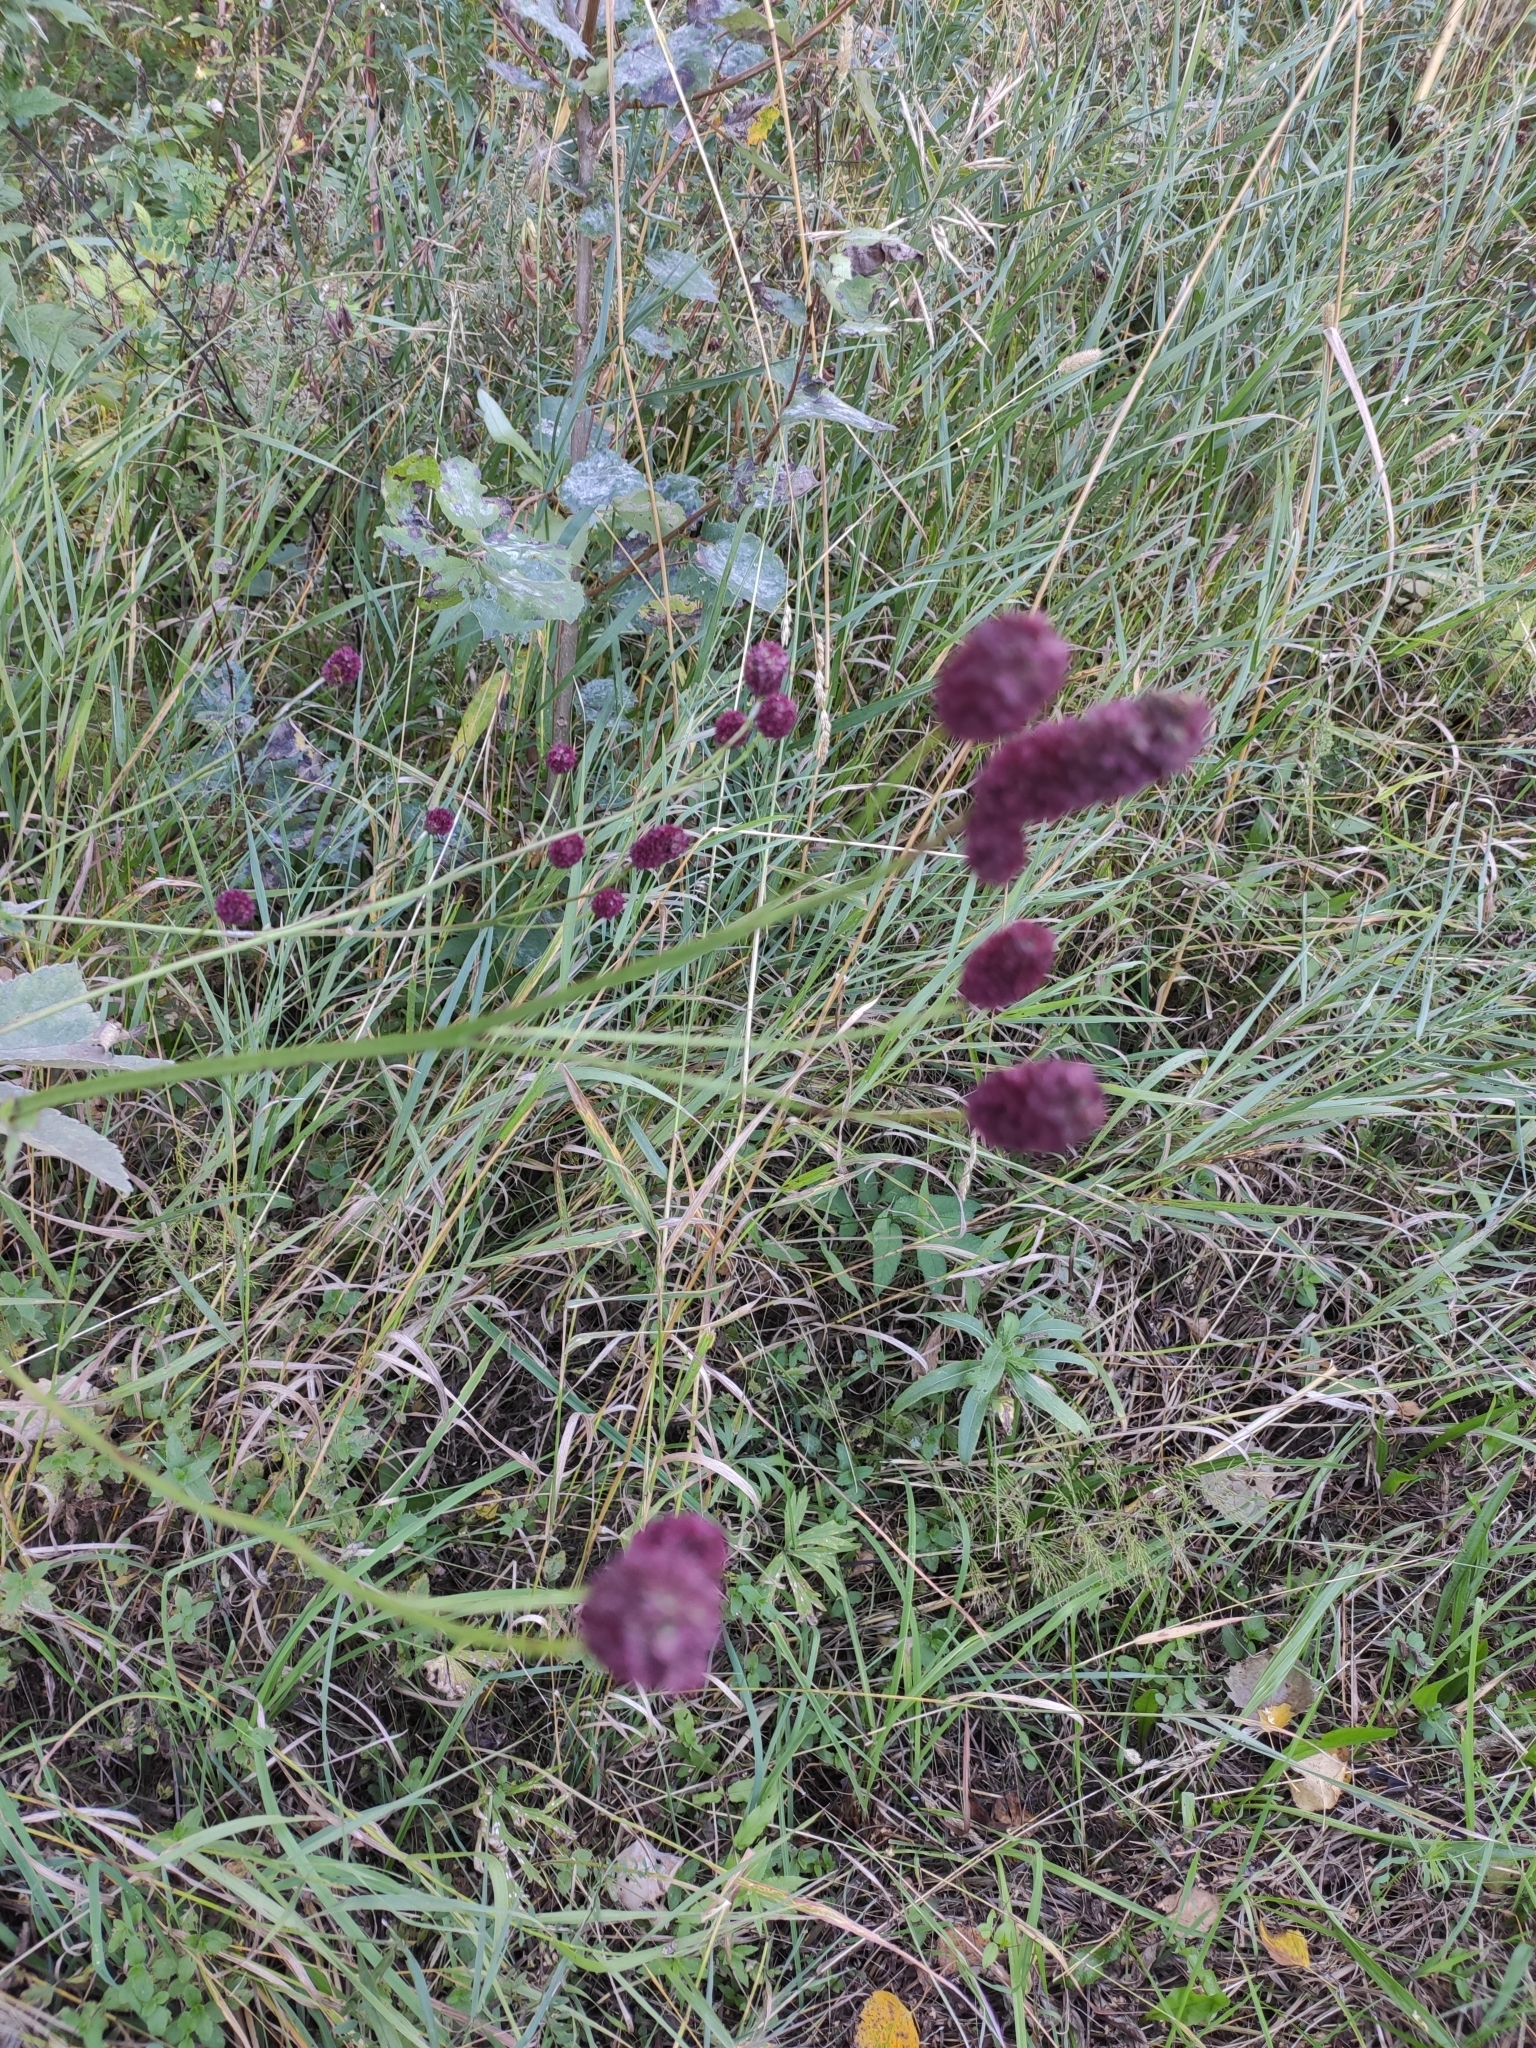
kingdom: Plantae
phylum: Tracheophyta
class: Magnoliopsida
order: Rosales
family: Rosaceae
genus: Sanguisorba
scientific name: Sanguisorba officinalis
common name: Great burnet
